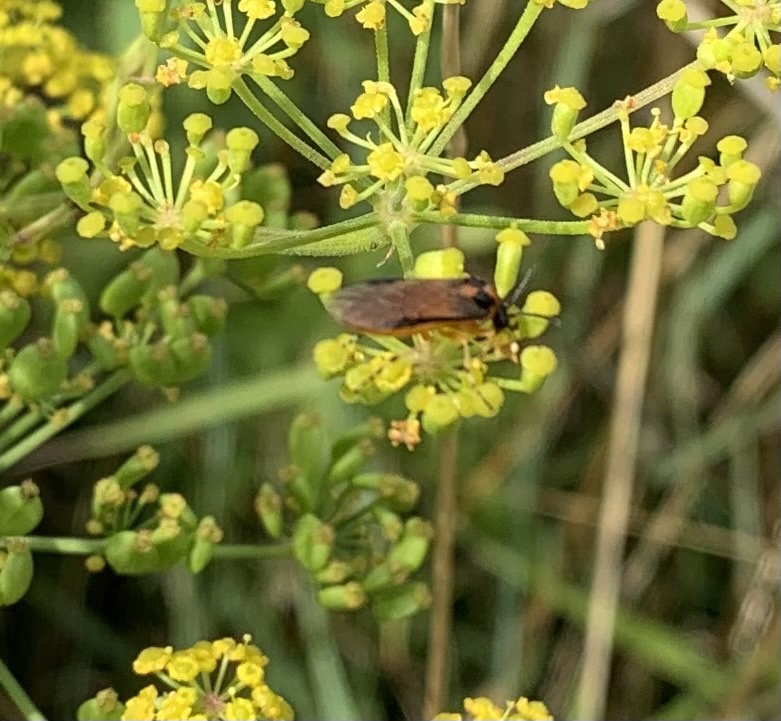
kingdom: Animalia
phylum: Arthropoda
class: Insecta
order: Hymenoptera
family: Tenthredinidae
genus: Athalia
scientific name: Athalia rosae
